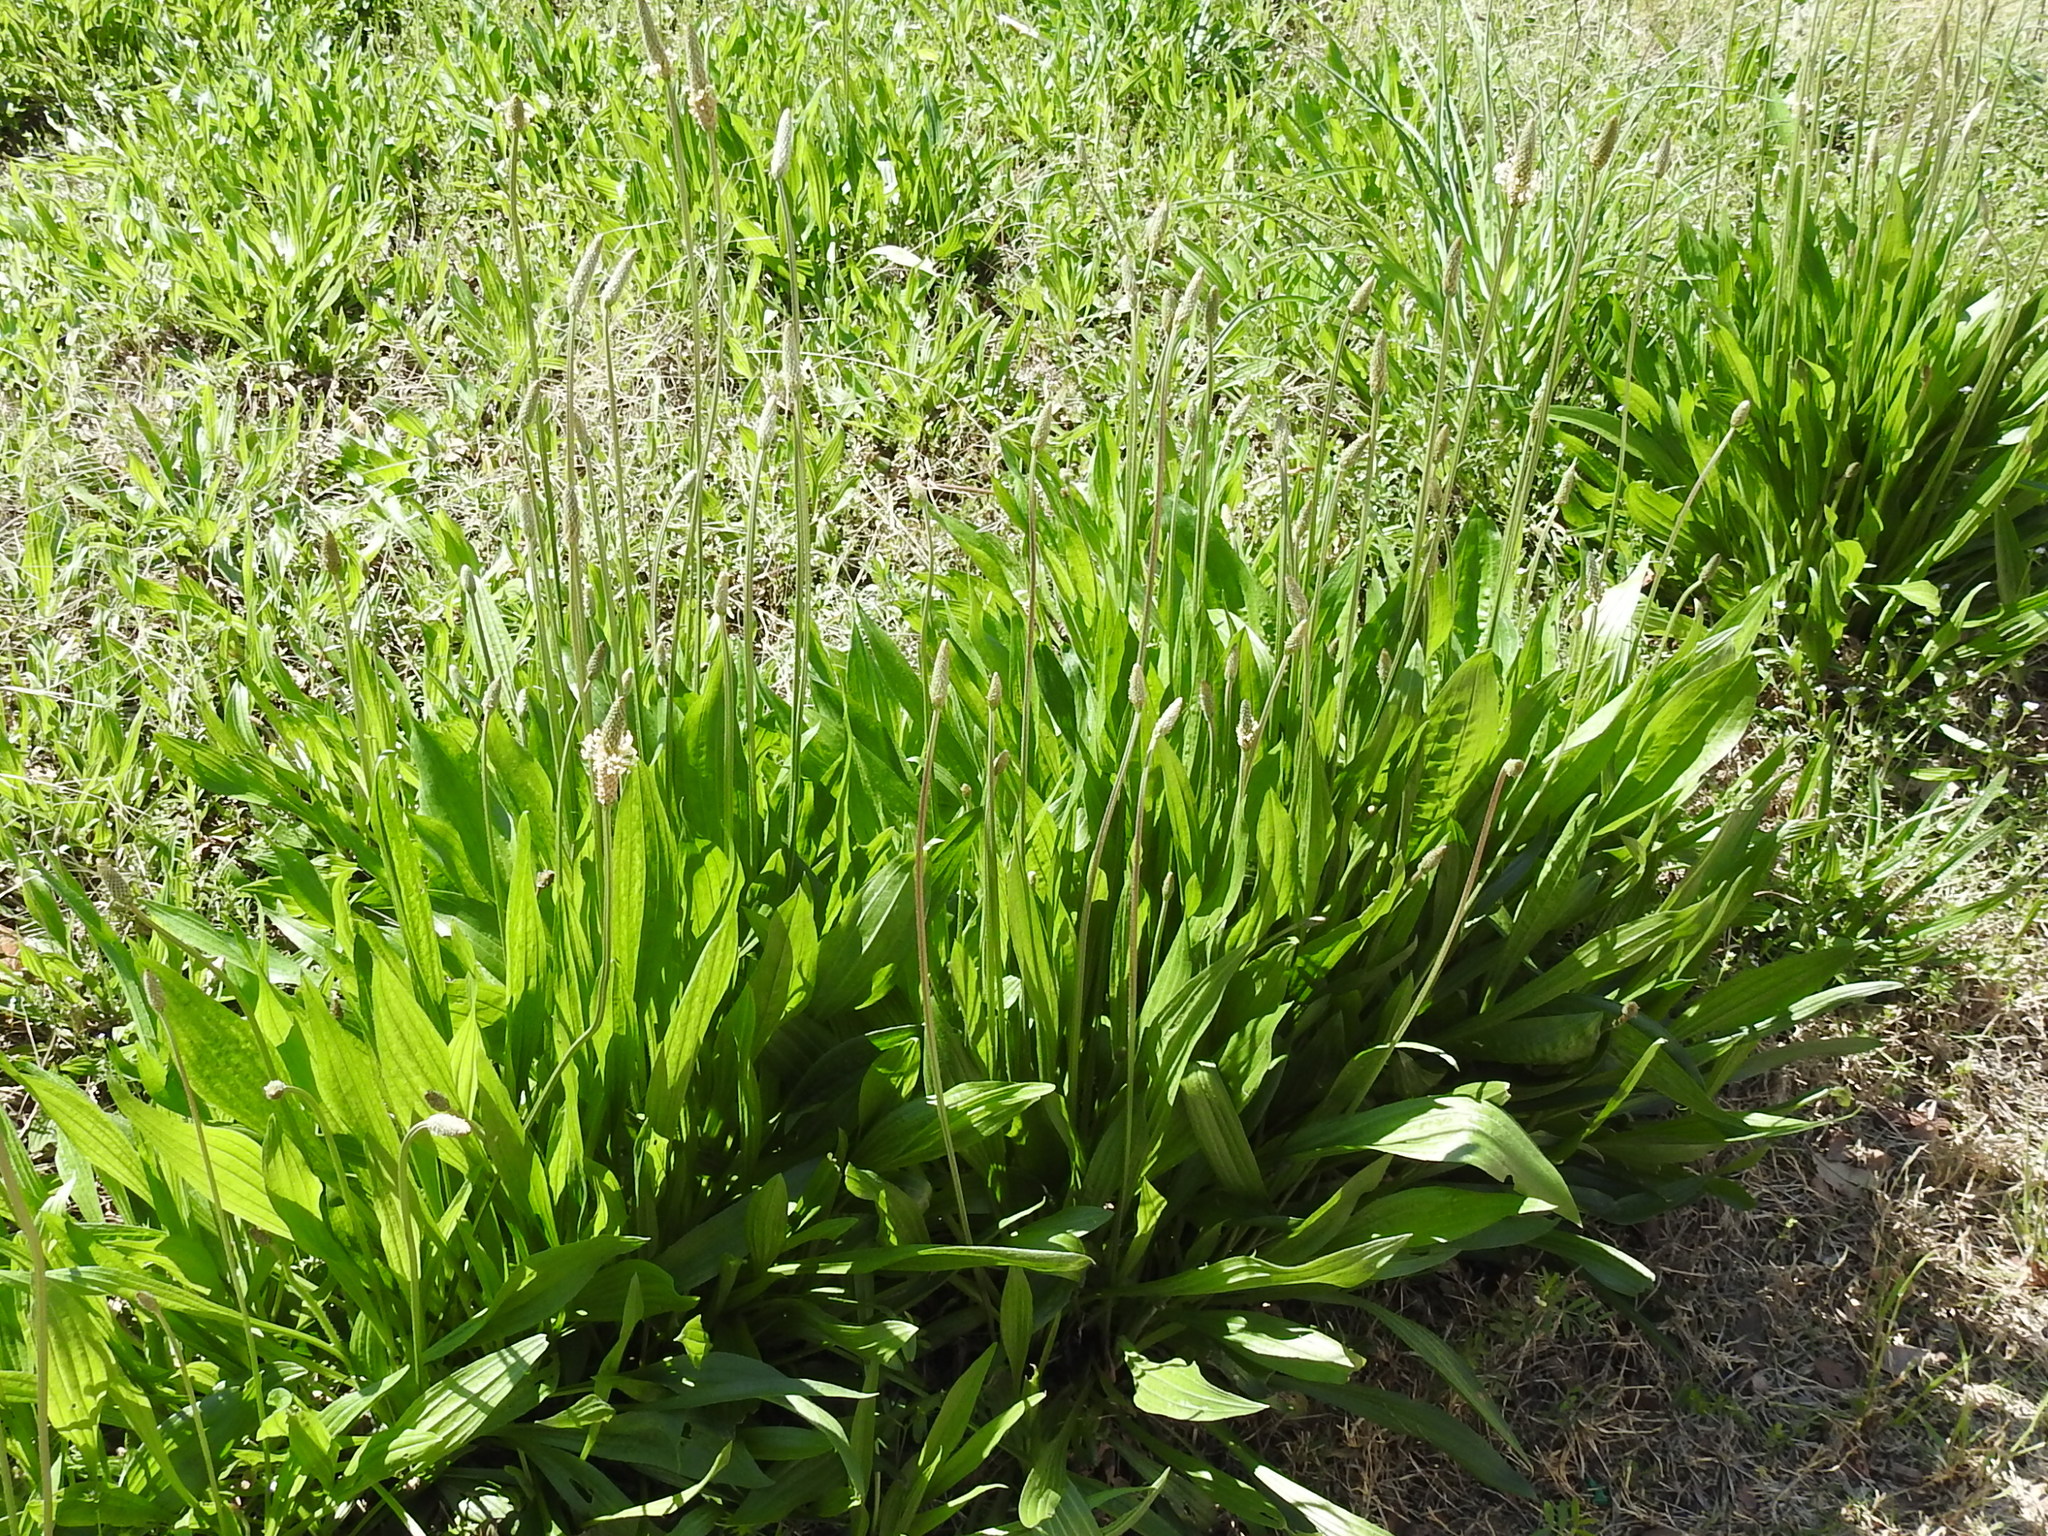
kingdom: Plantae
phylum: Tracheophyta
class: Magnoliopsida
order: Lamiales
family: Plantaginaceae
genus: Plantago
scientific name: Plantago lanceolata
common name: Ribwort plantain
